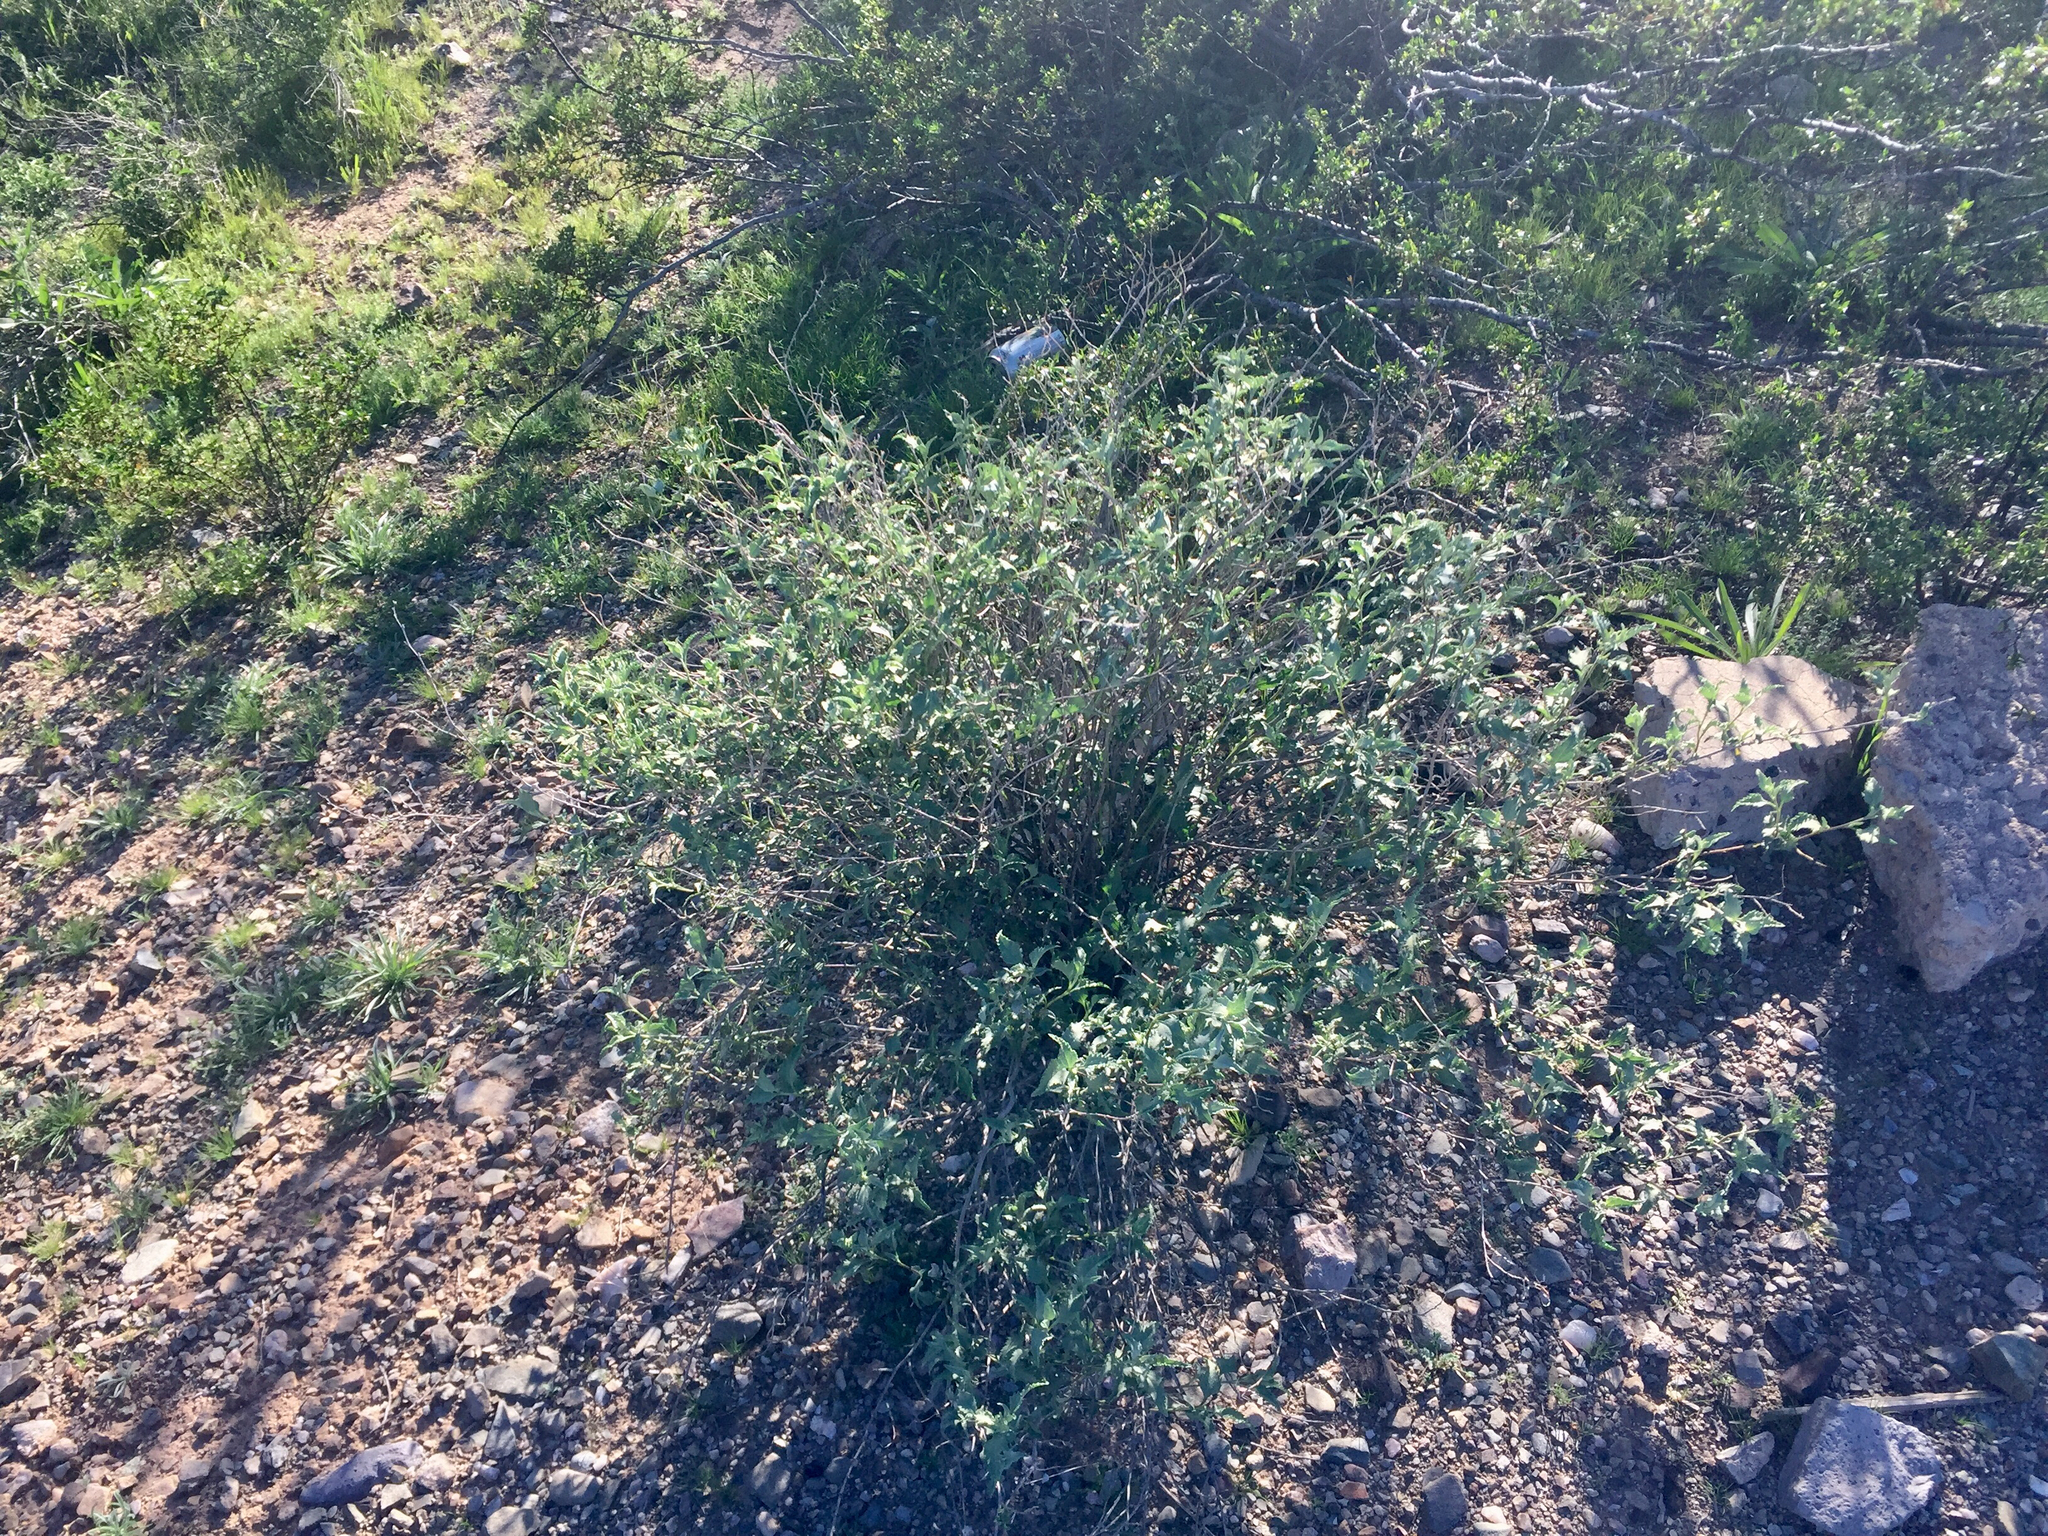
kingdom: Plantae
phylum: Tracheophyta
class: Magnoliopsida
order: Asterales
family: Asteraceae
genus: Ambrosia
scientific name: Ambrosia deltoidea
